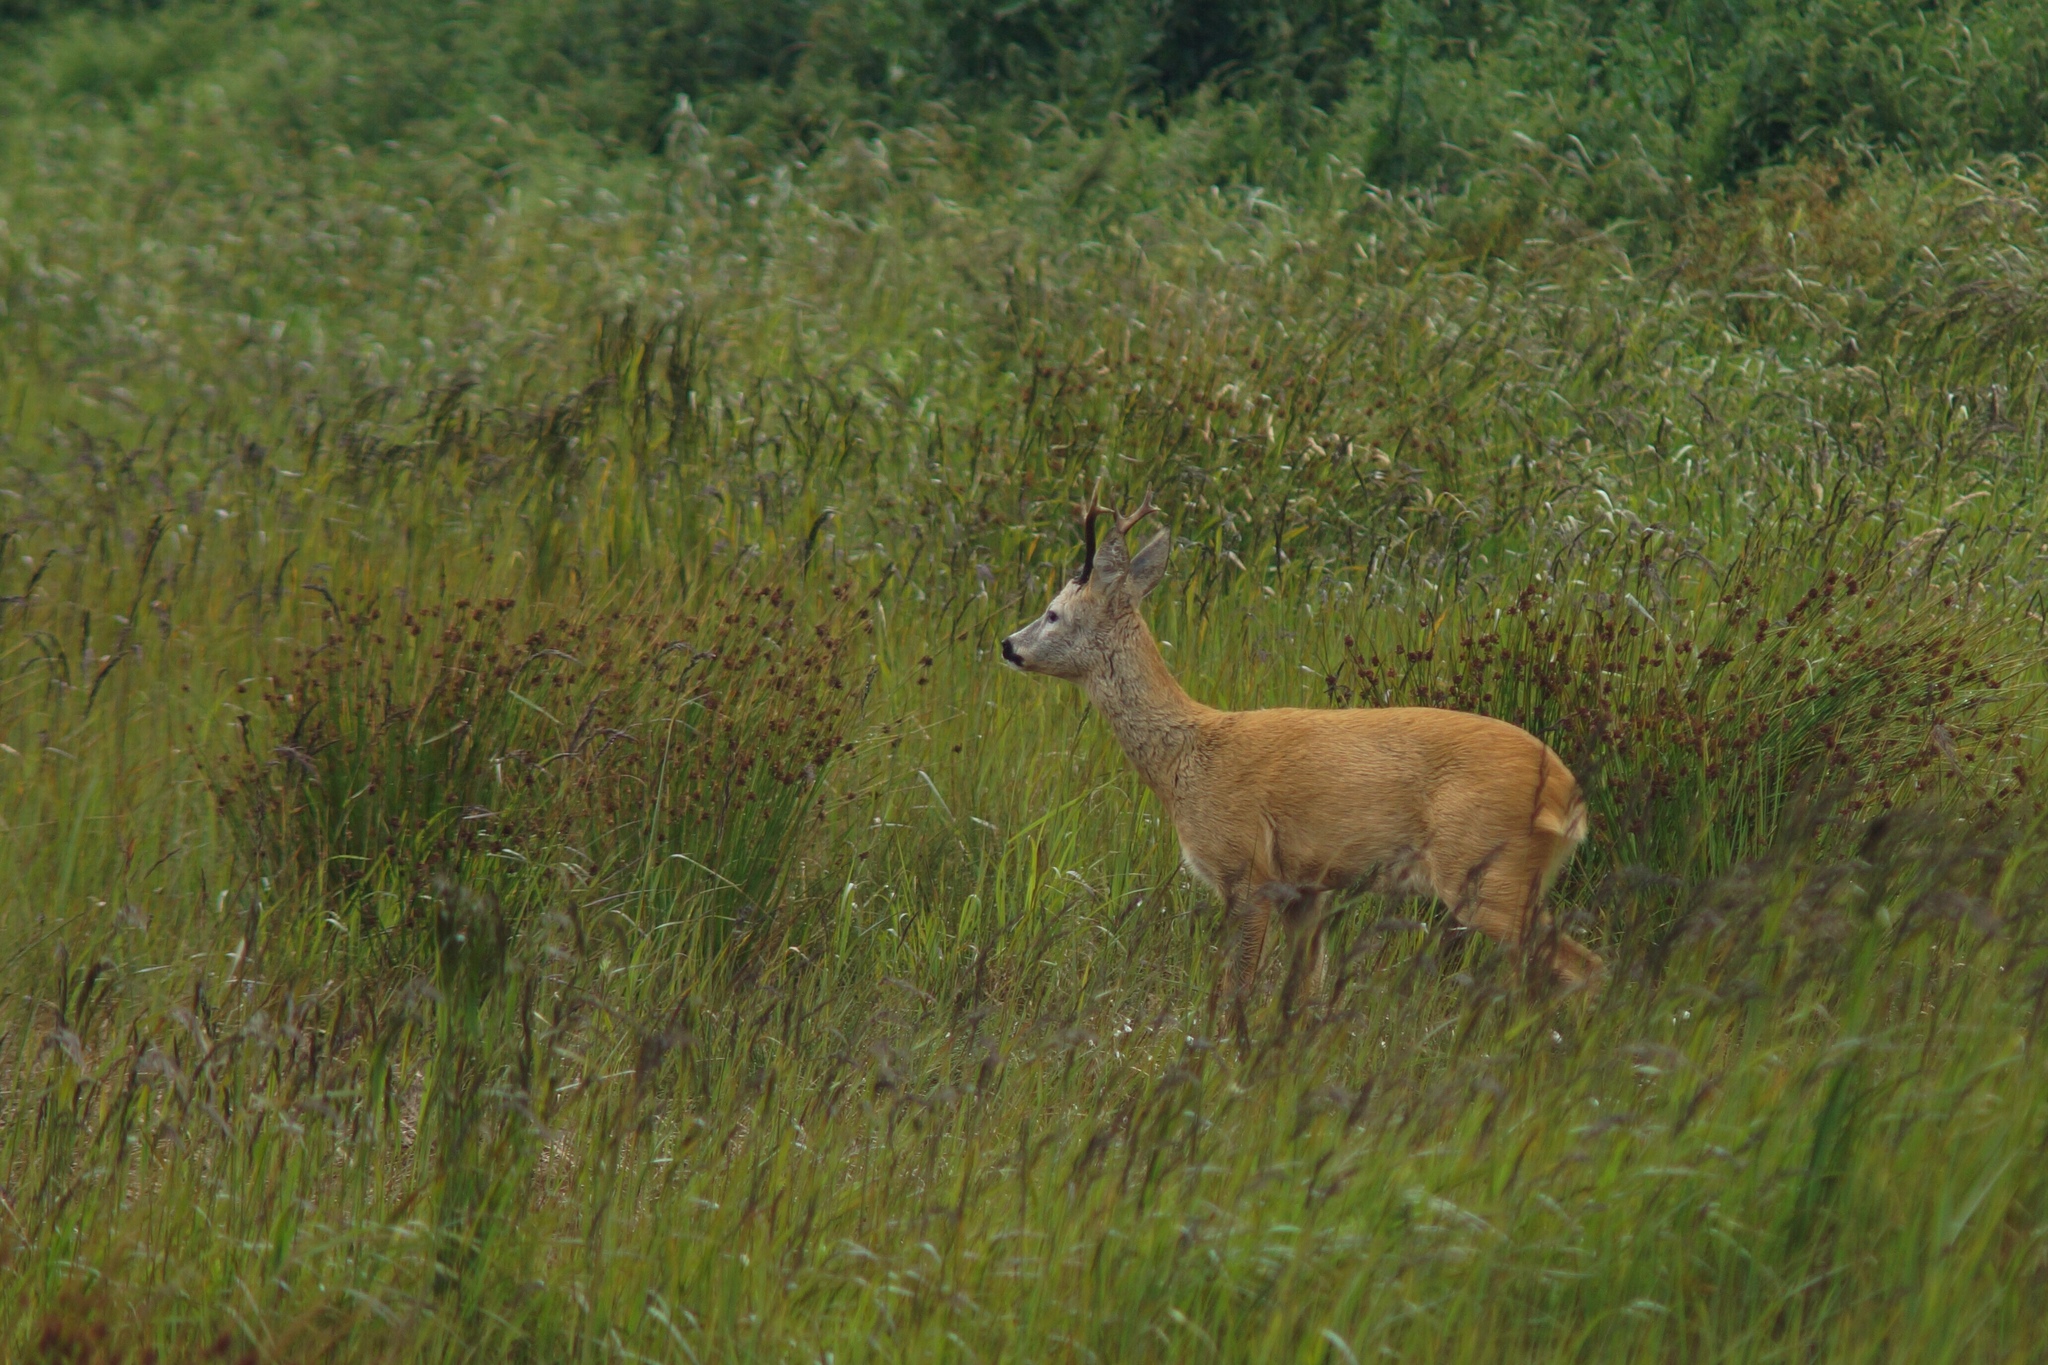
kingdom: Animalia
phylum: Chordata
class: Mammalia
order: Artiodactyla
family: Cervidae
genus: Capreolus
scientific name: Capreolus capreolus
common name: Western roe deer
